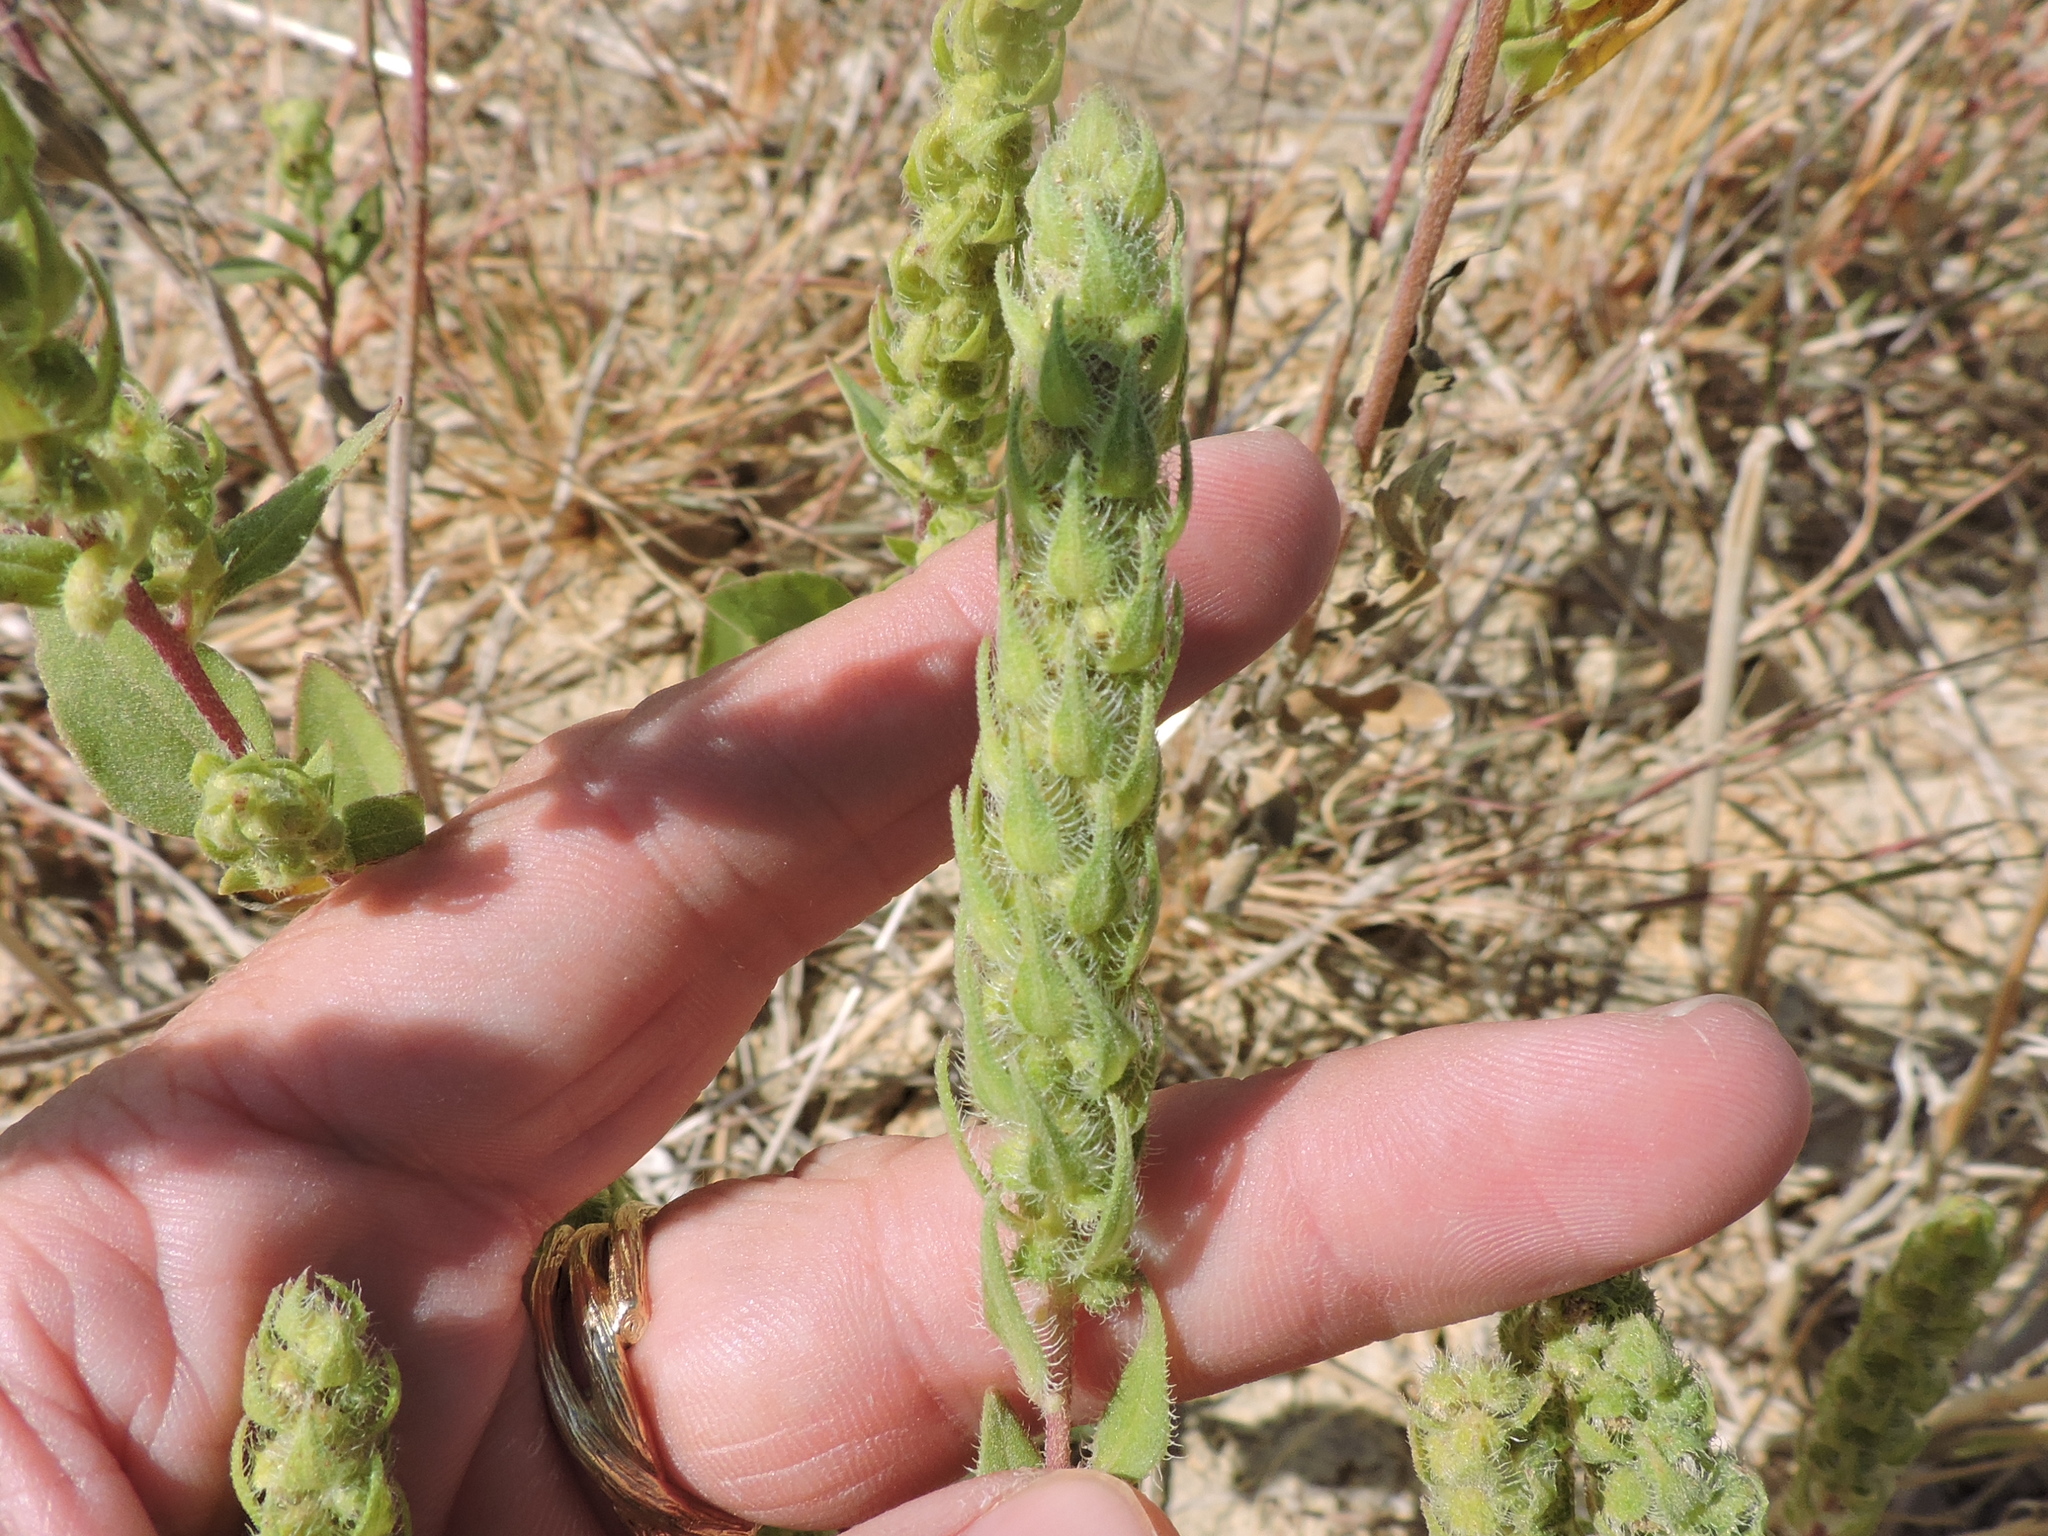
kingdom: Plantae
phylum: Tracheophyta
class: Magnoliopsida
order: Asterales
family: Asteraceae
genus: Iva
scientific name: Iva annua
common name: Marsh-elder
